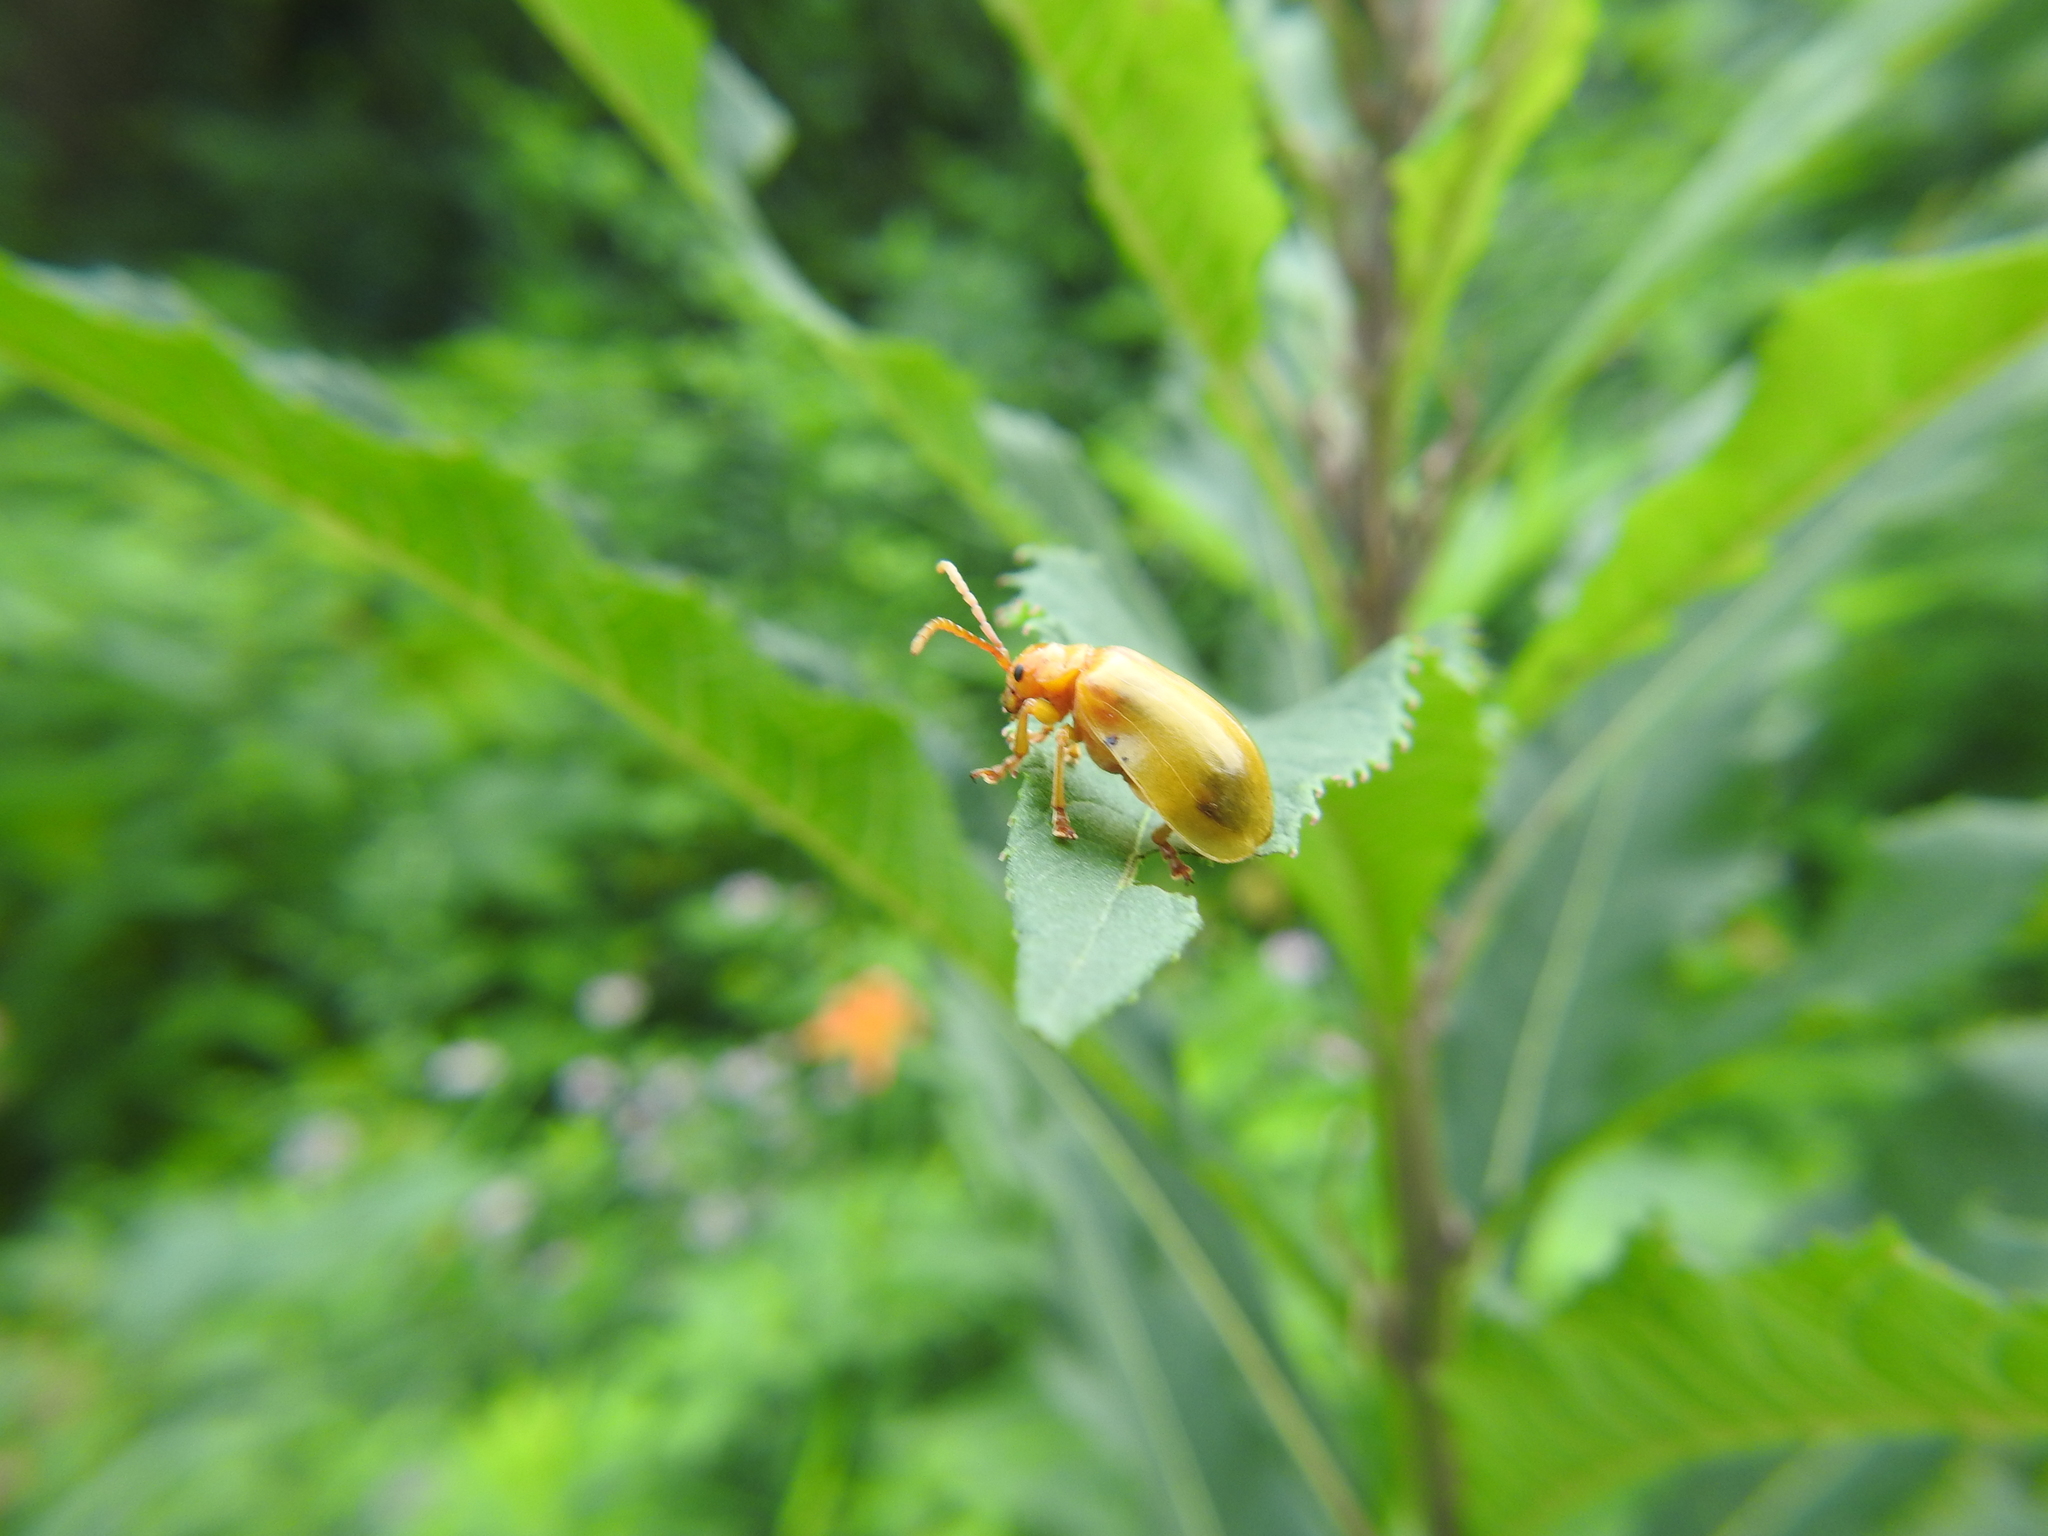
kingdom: Animalia
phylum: Arthropoda
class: Insecta
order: Coleoptera
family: Chrysomelidae
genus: Monocesta
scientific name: Monocesta coryli
